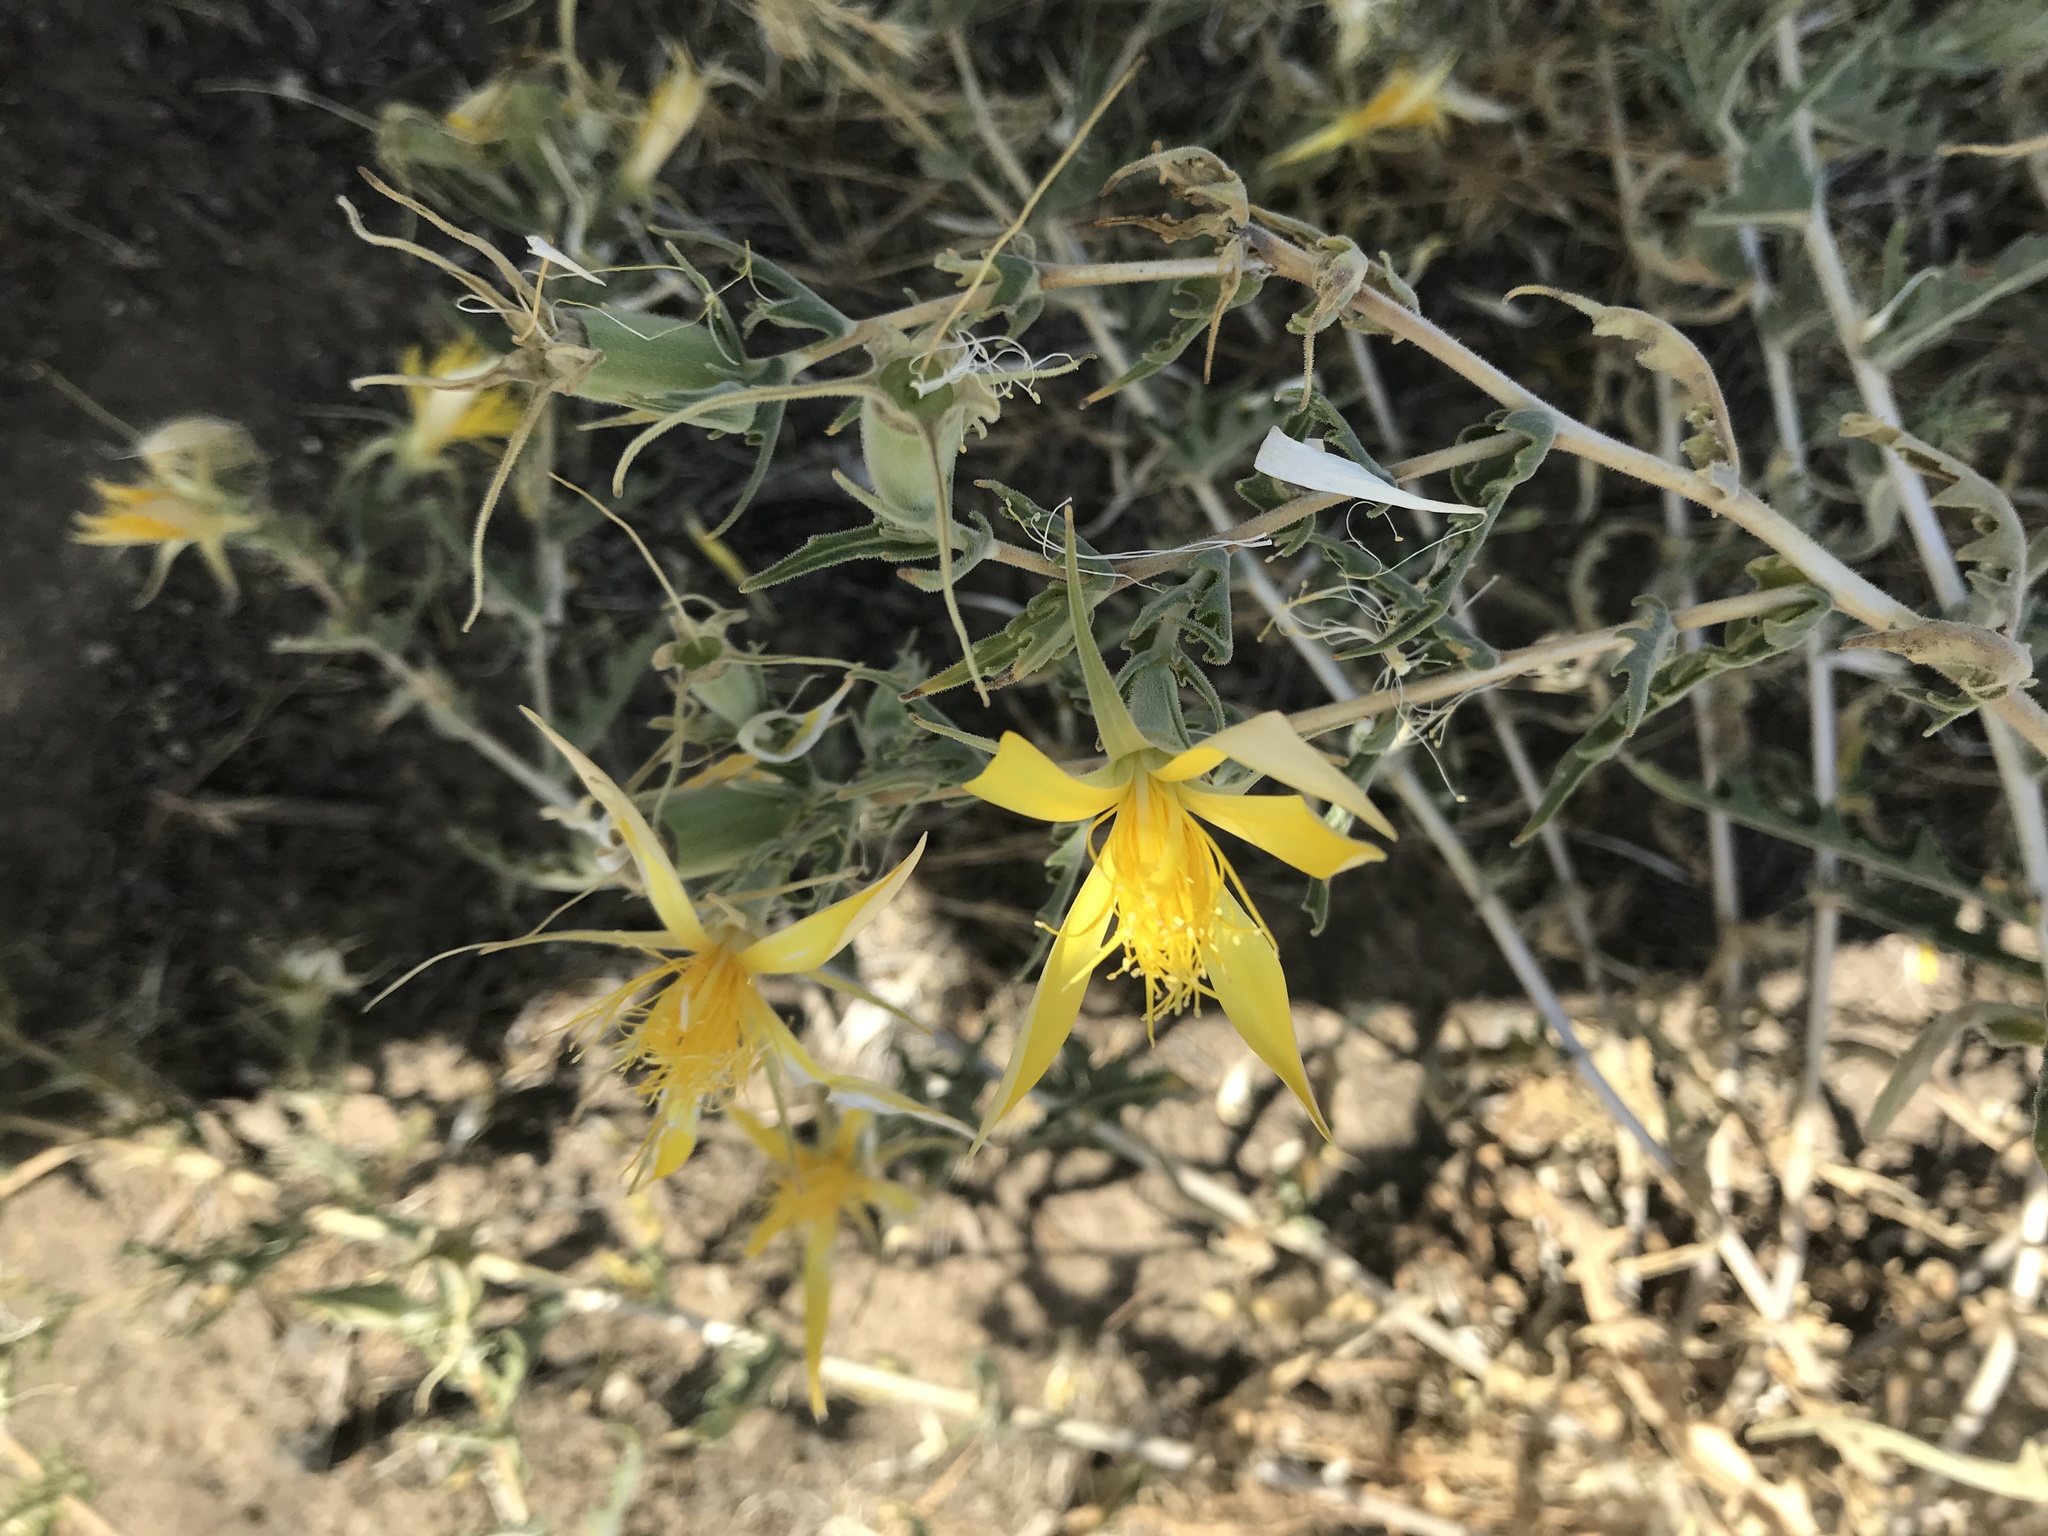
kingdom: Plantae
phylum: Tracheophyta
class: Magnoliopsida
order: Cornales
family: Loasaceae
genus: Mentzelia
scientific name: Mentzelia laevicaulis
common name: Smooth-stem blazingstar
